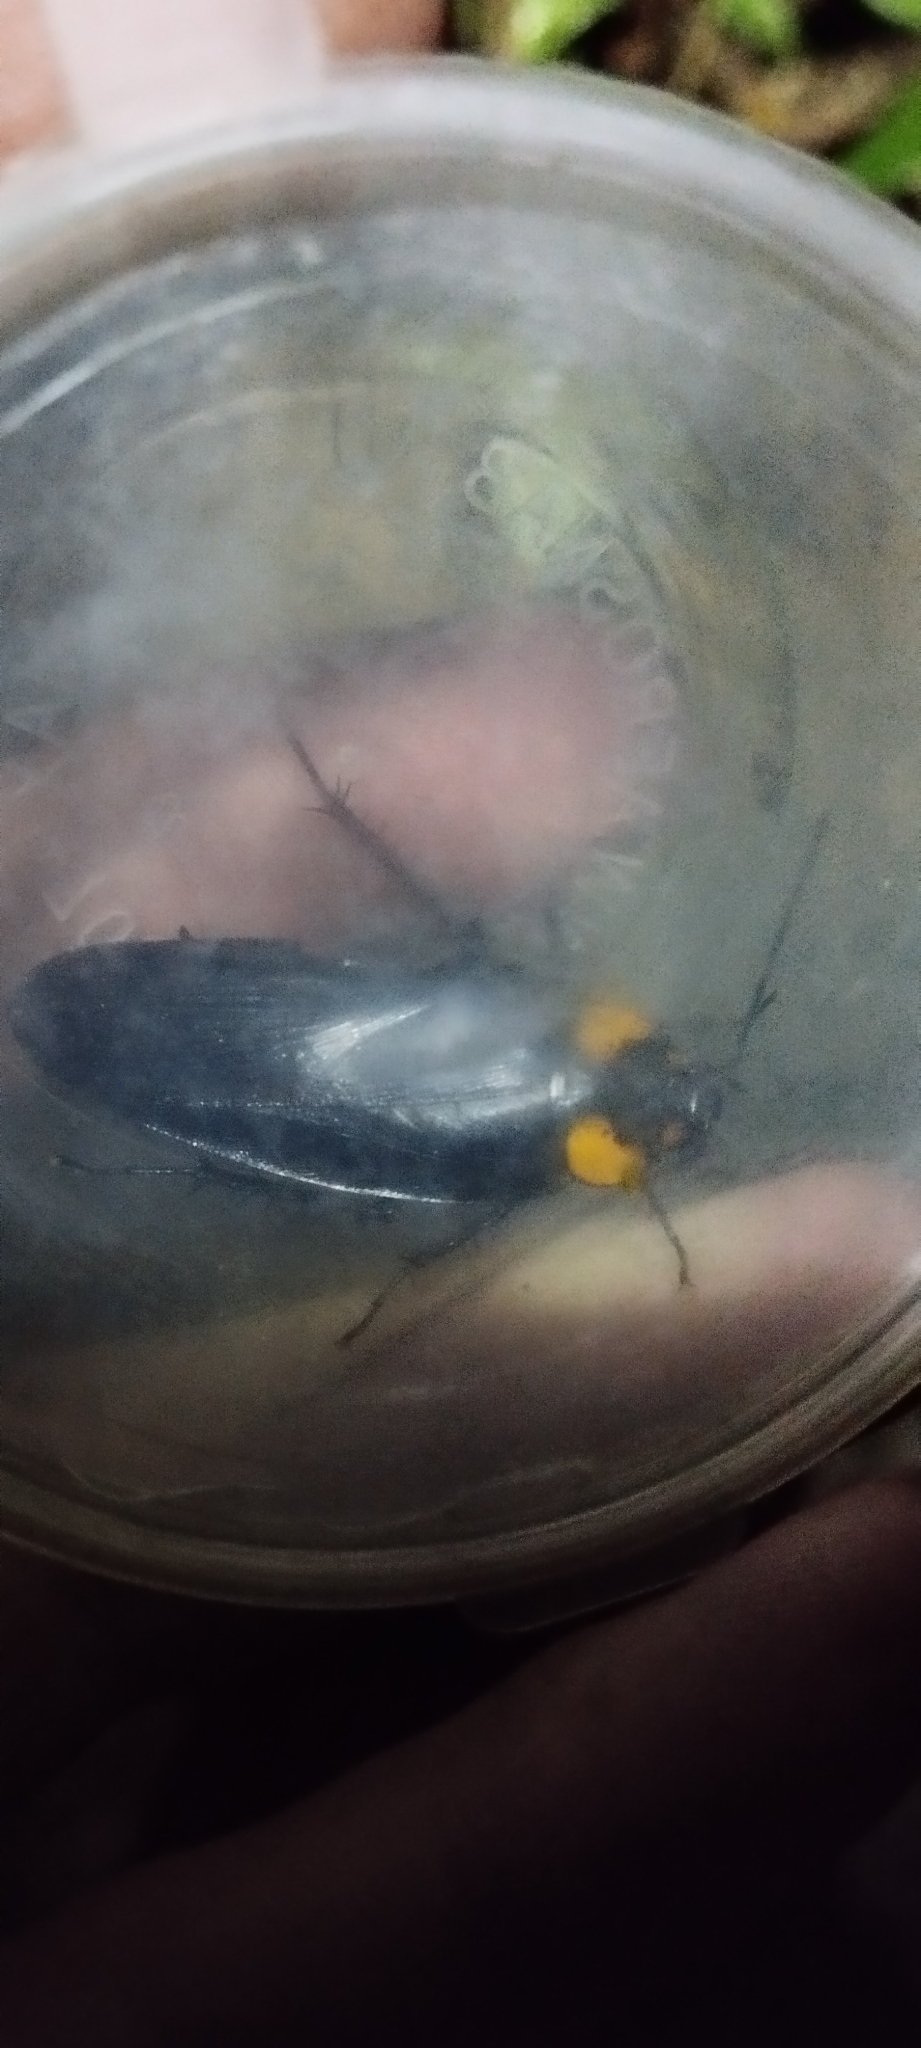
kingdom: Animalia
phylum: Arthropoda
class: Insecta
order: Blattodea
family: Blattidae
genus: Periplaneta
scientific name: Periplaneta quadrinotata
